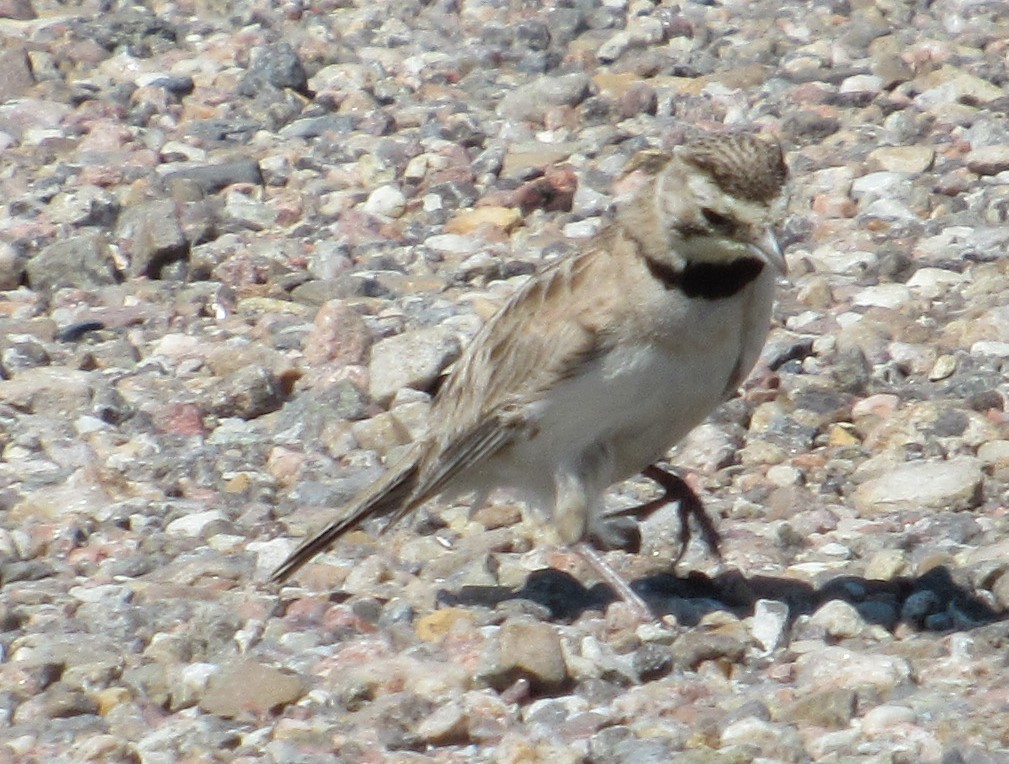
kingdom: Animalia
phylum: Chordata
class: Aves
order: Passeriformes
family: Alaudidae
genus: Eremophila
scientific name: Eremophila alpestris
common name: Horned lark
